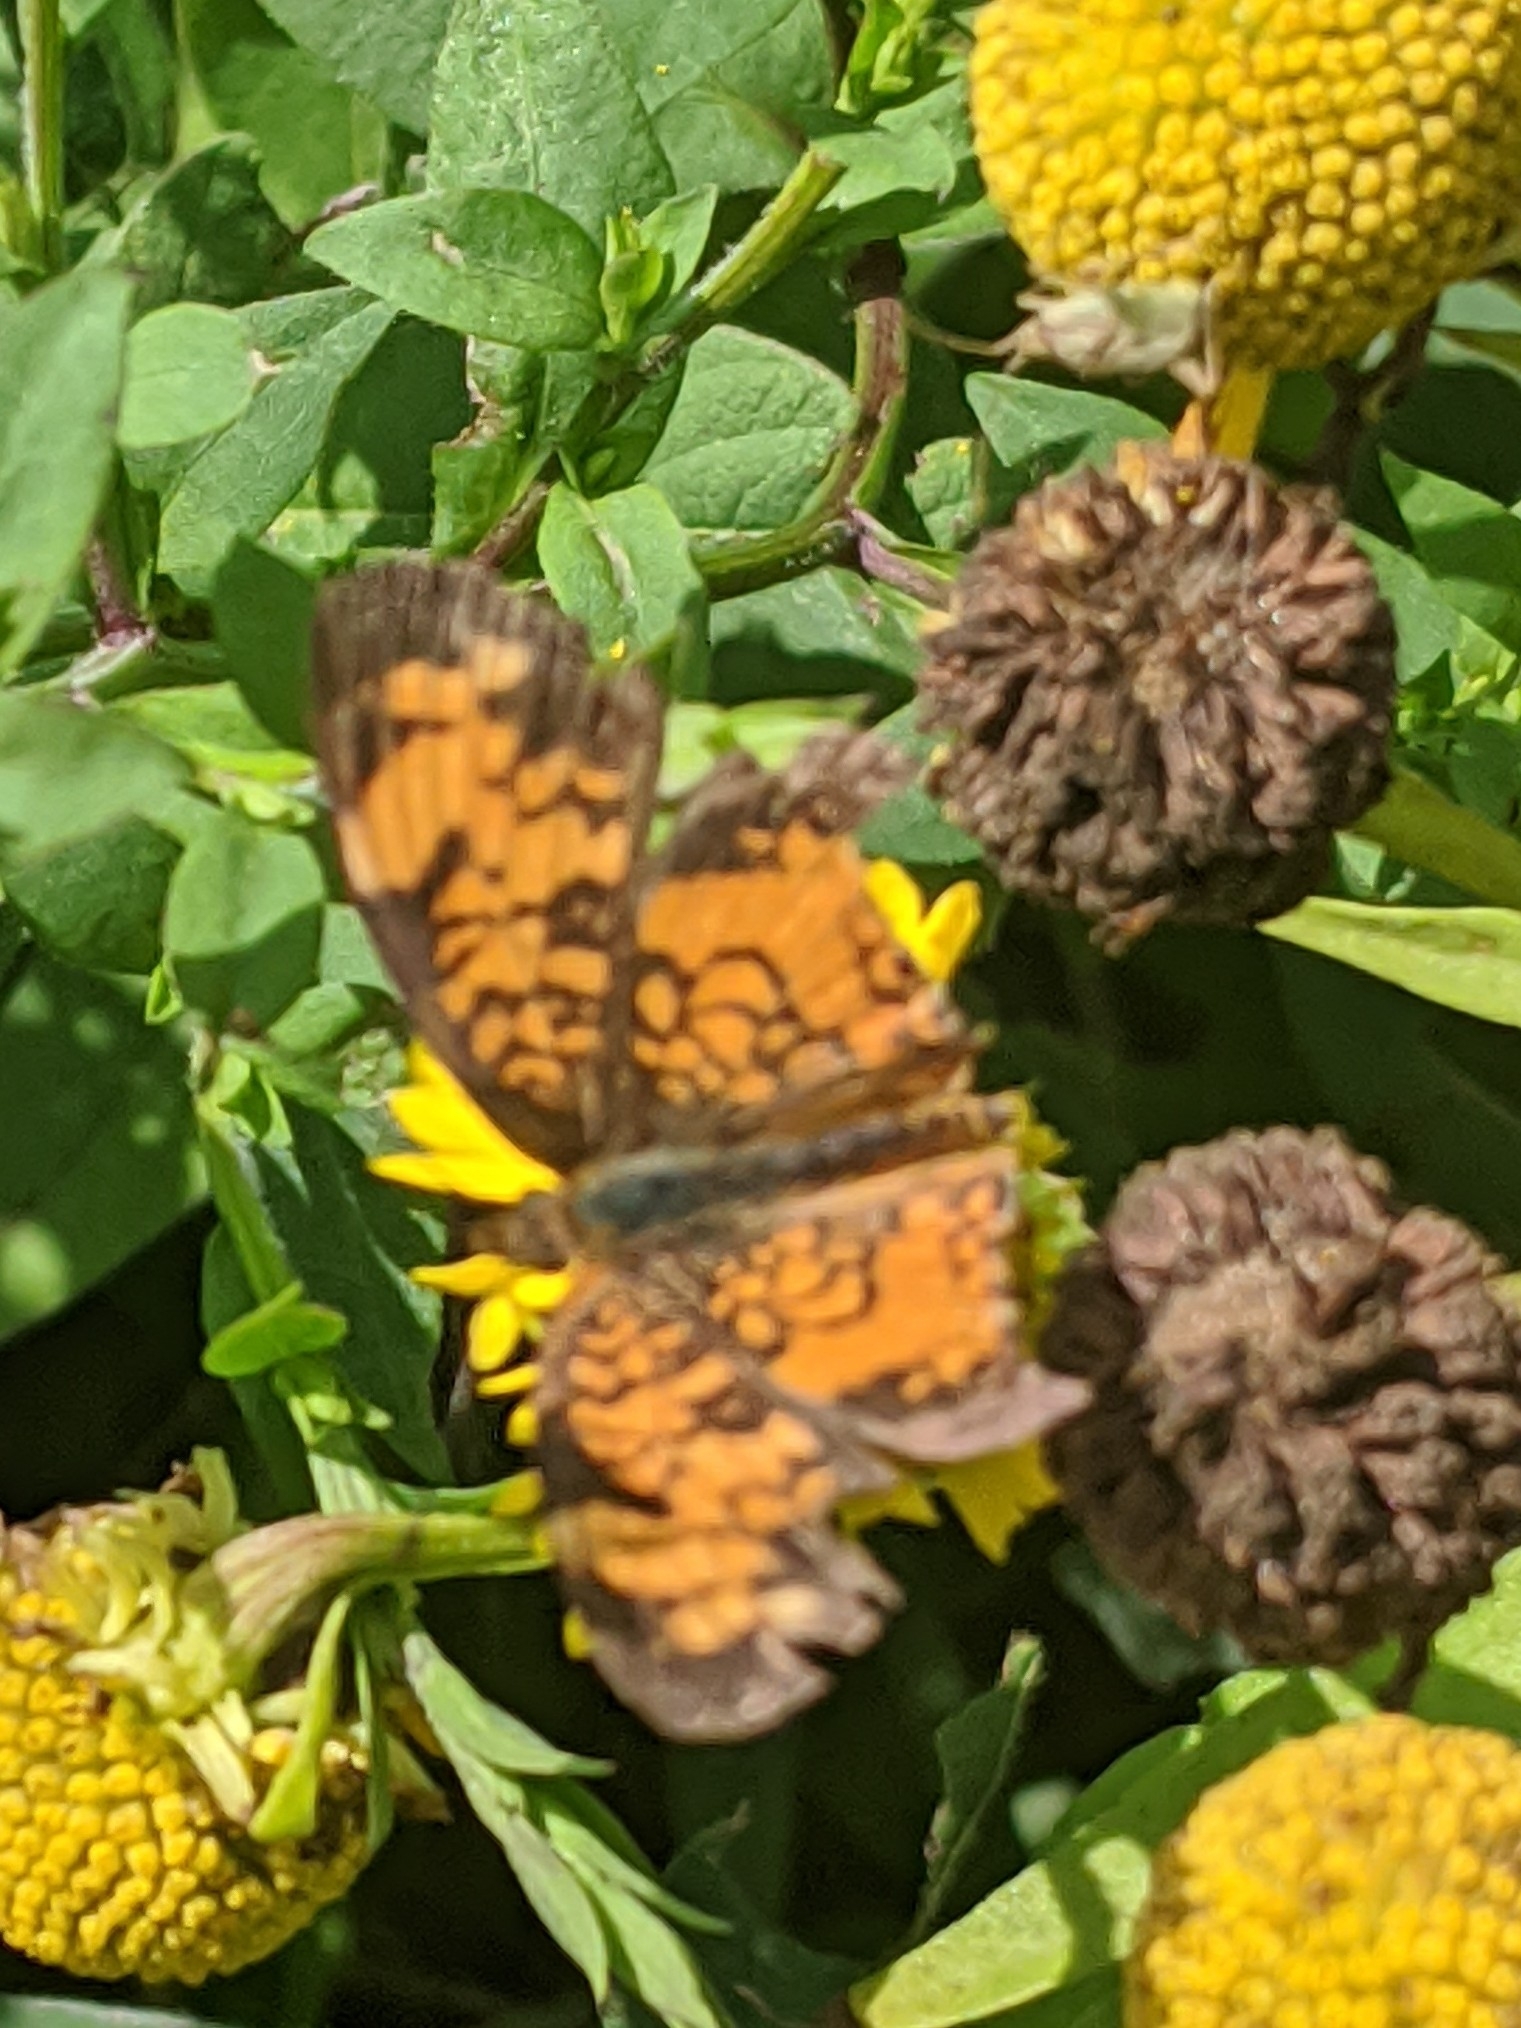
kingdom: Animalia
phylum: Arthropoda
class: Insecta
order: Lepidoptera
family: Nymphalidae
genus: Phyciodes
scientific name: Phyciodes tharos
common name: Pearl crescent
